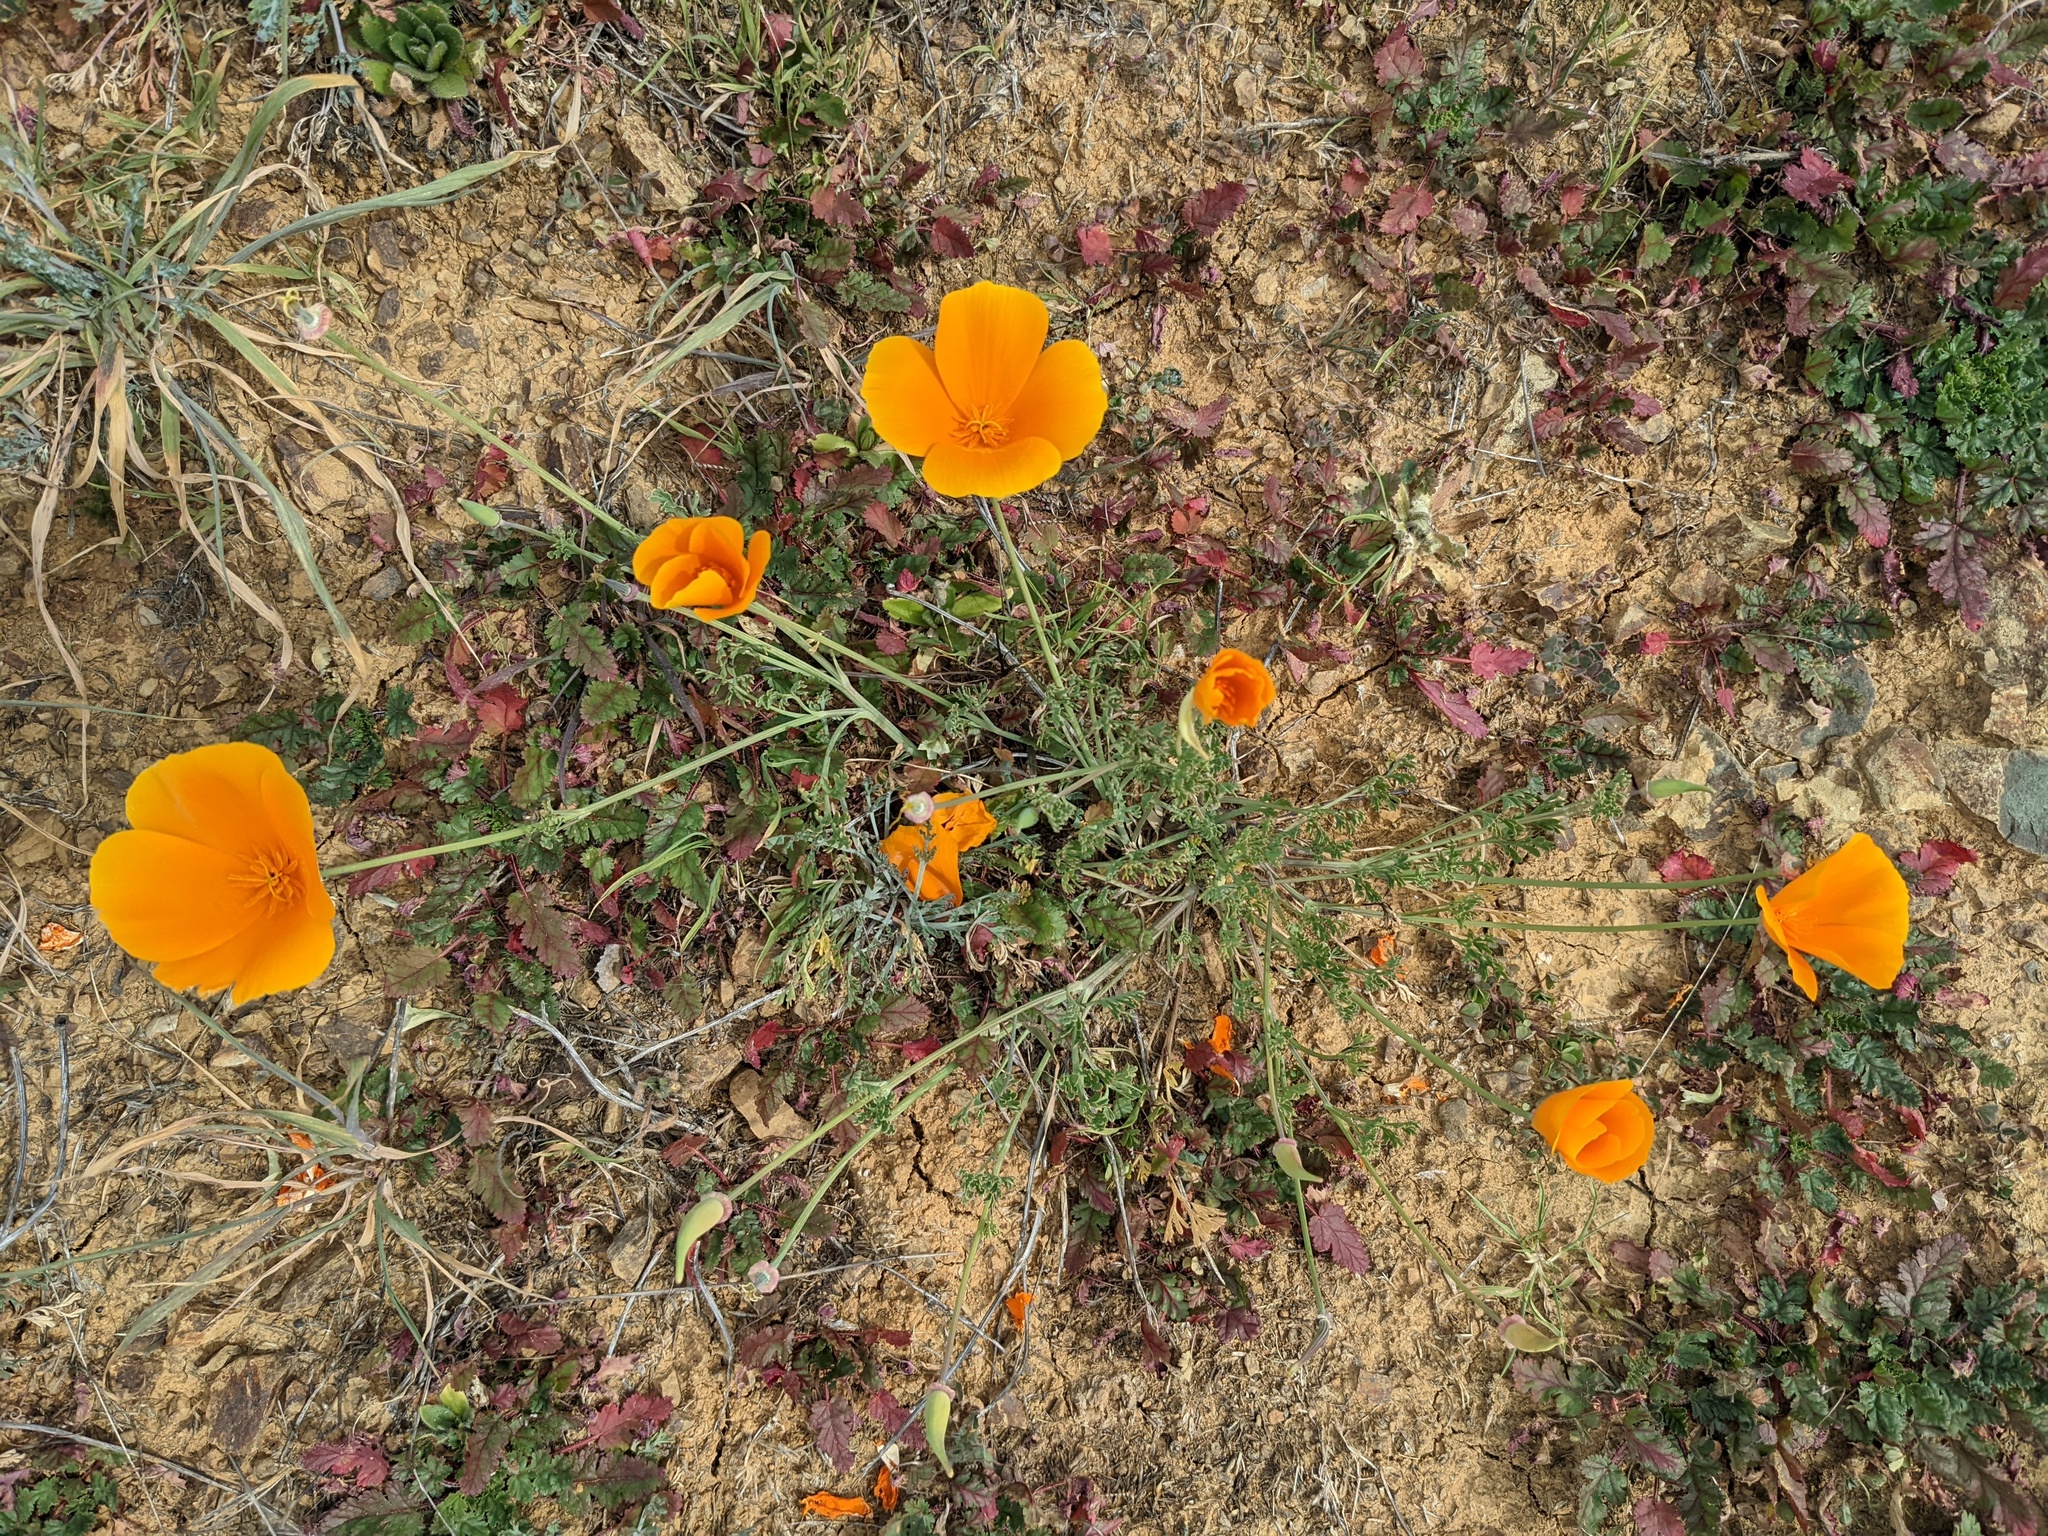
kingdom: Plantae
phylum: Tracheophyta
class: Magnoliopsida
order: Ranunculales
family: Papaveraceae
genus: Eschscholzia
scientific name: Eschscholzia californica
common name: California poppy
